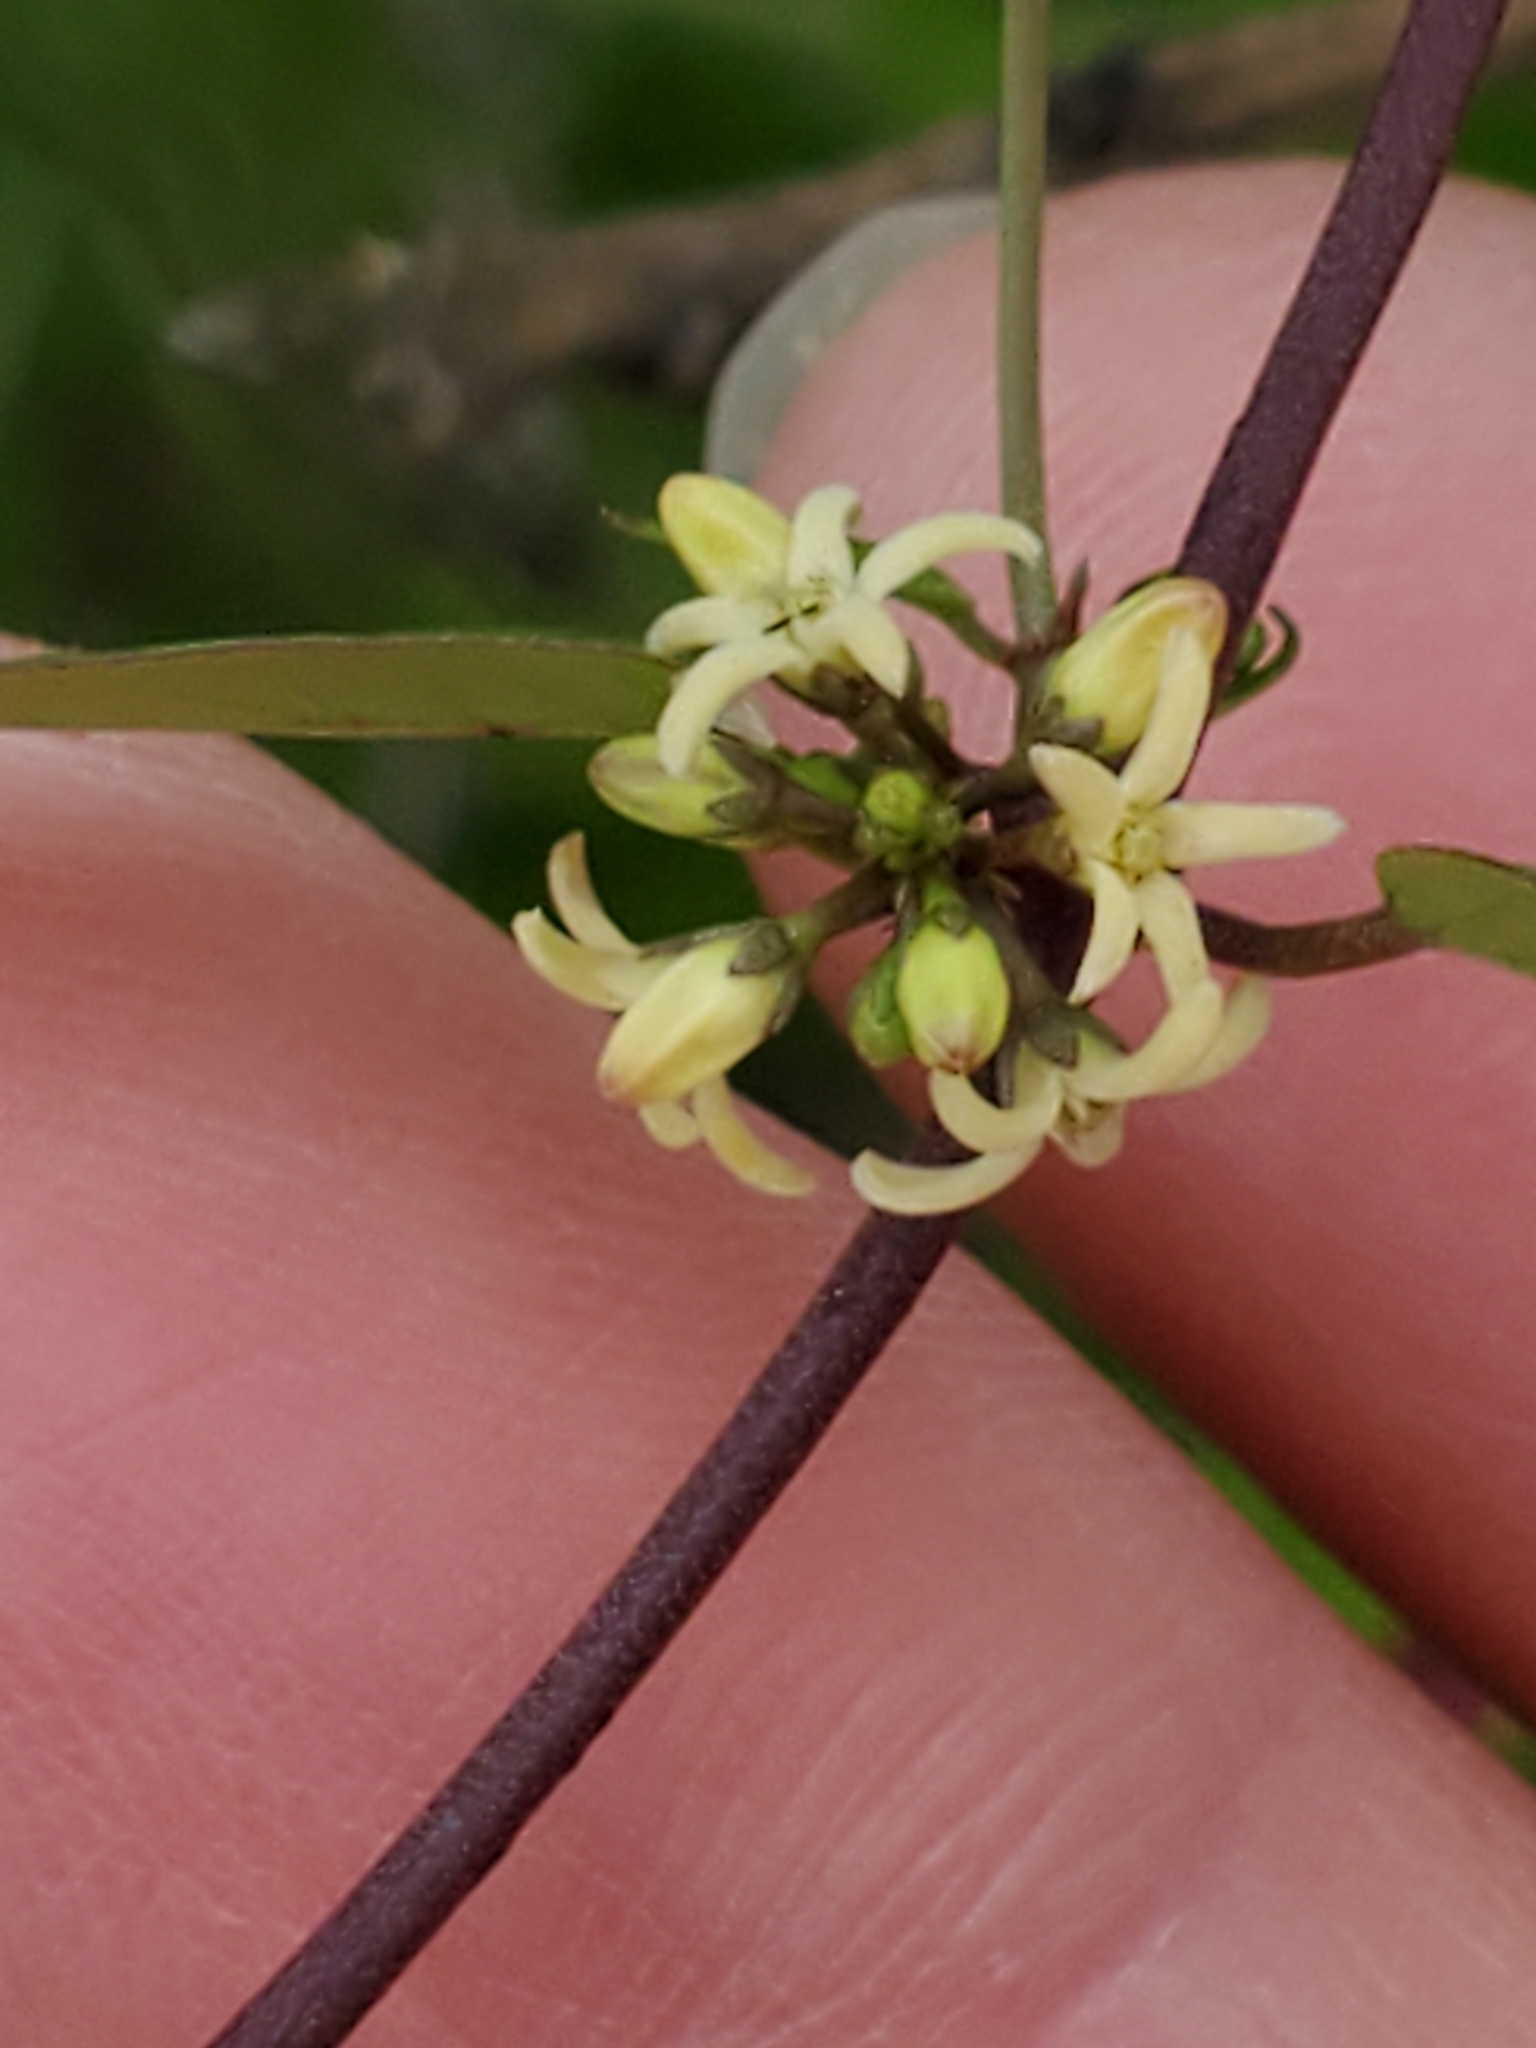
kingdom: Plantae
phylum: Tracheophyta
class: Magnoliopsida
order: Gentianales
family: Apocynaceae
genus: Metastelma
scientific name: Metastelma palmeri
